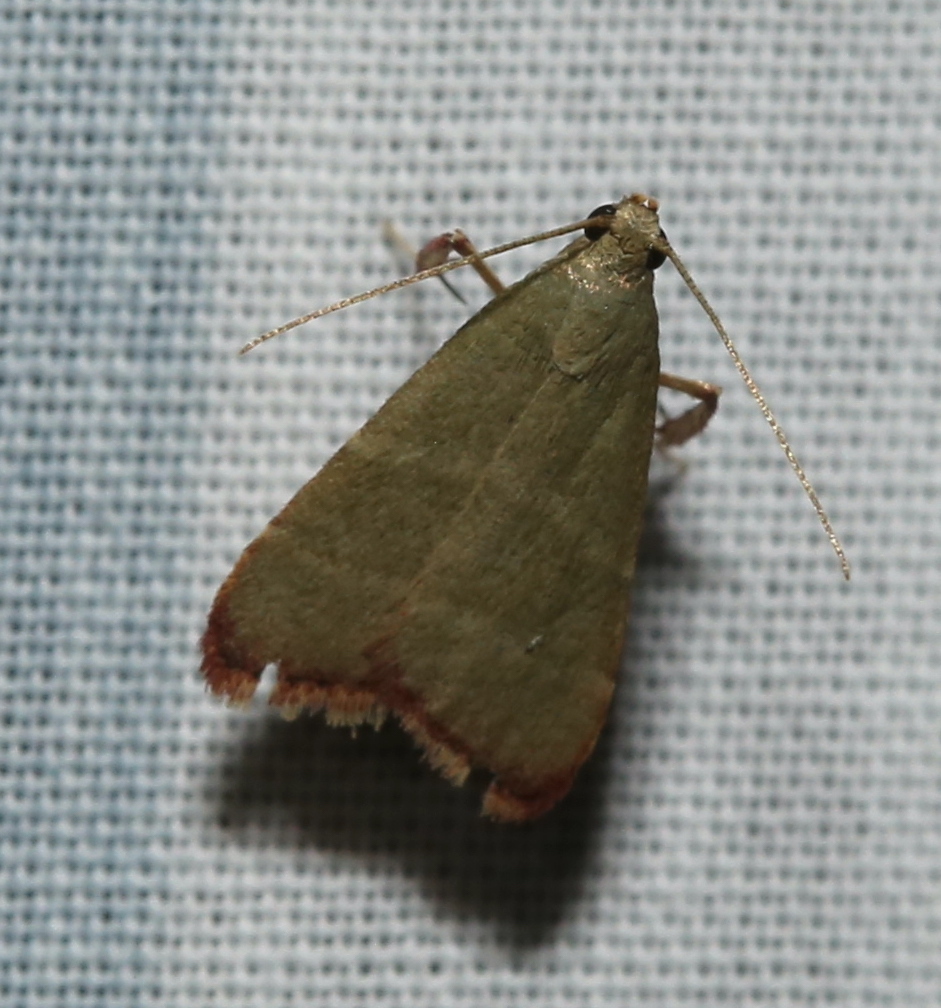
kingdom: Animalia
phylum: Arthropoda
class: Insecta
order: Lepidoptera
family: Pyralidae
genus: Arta
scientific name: Arta olivalis
